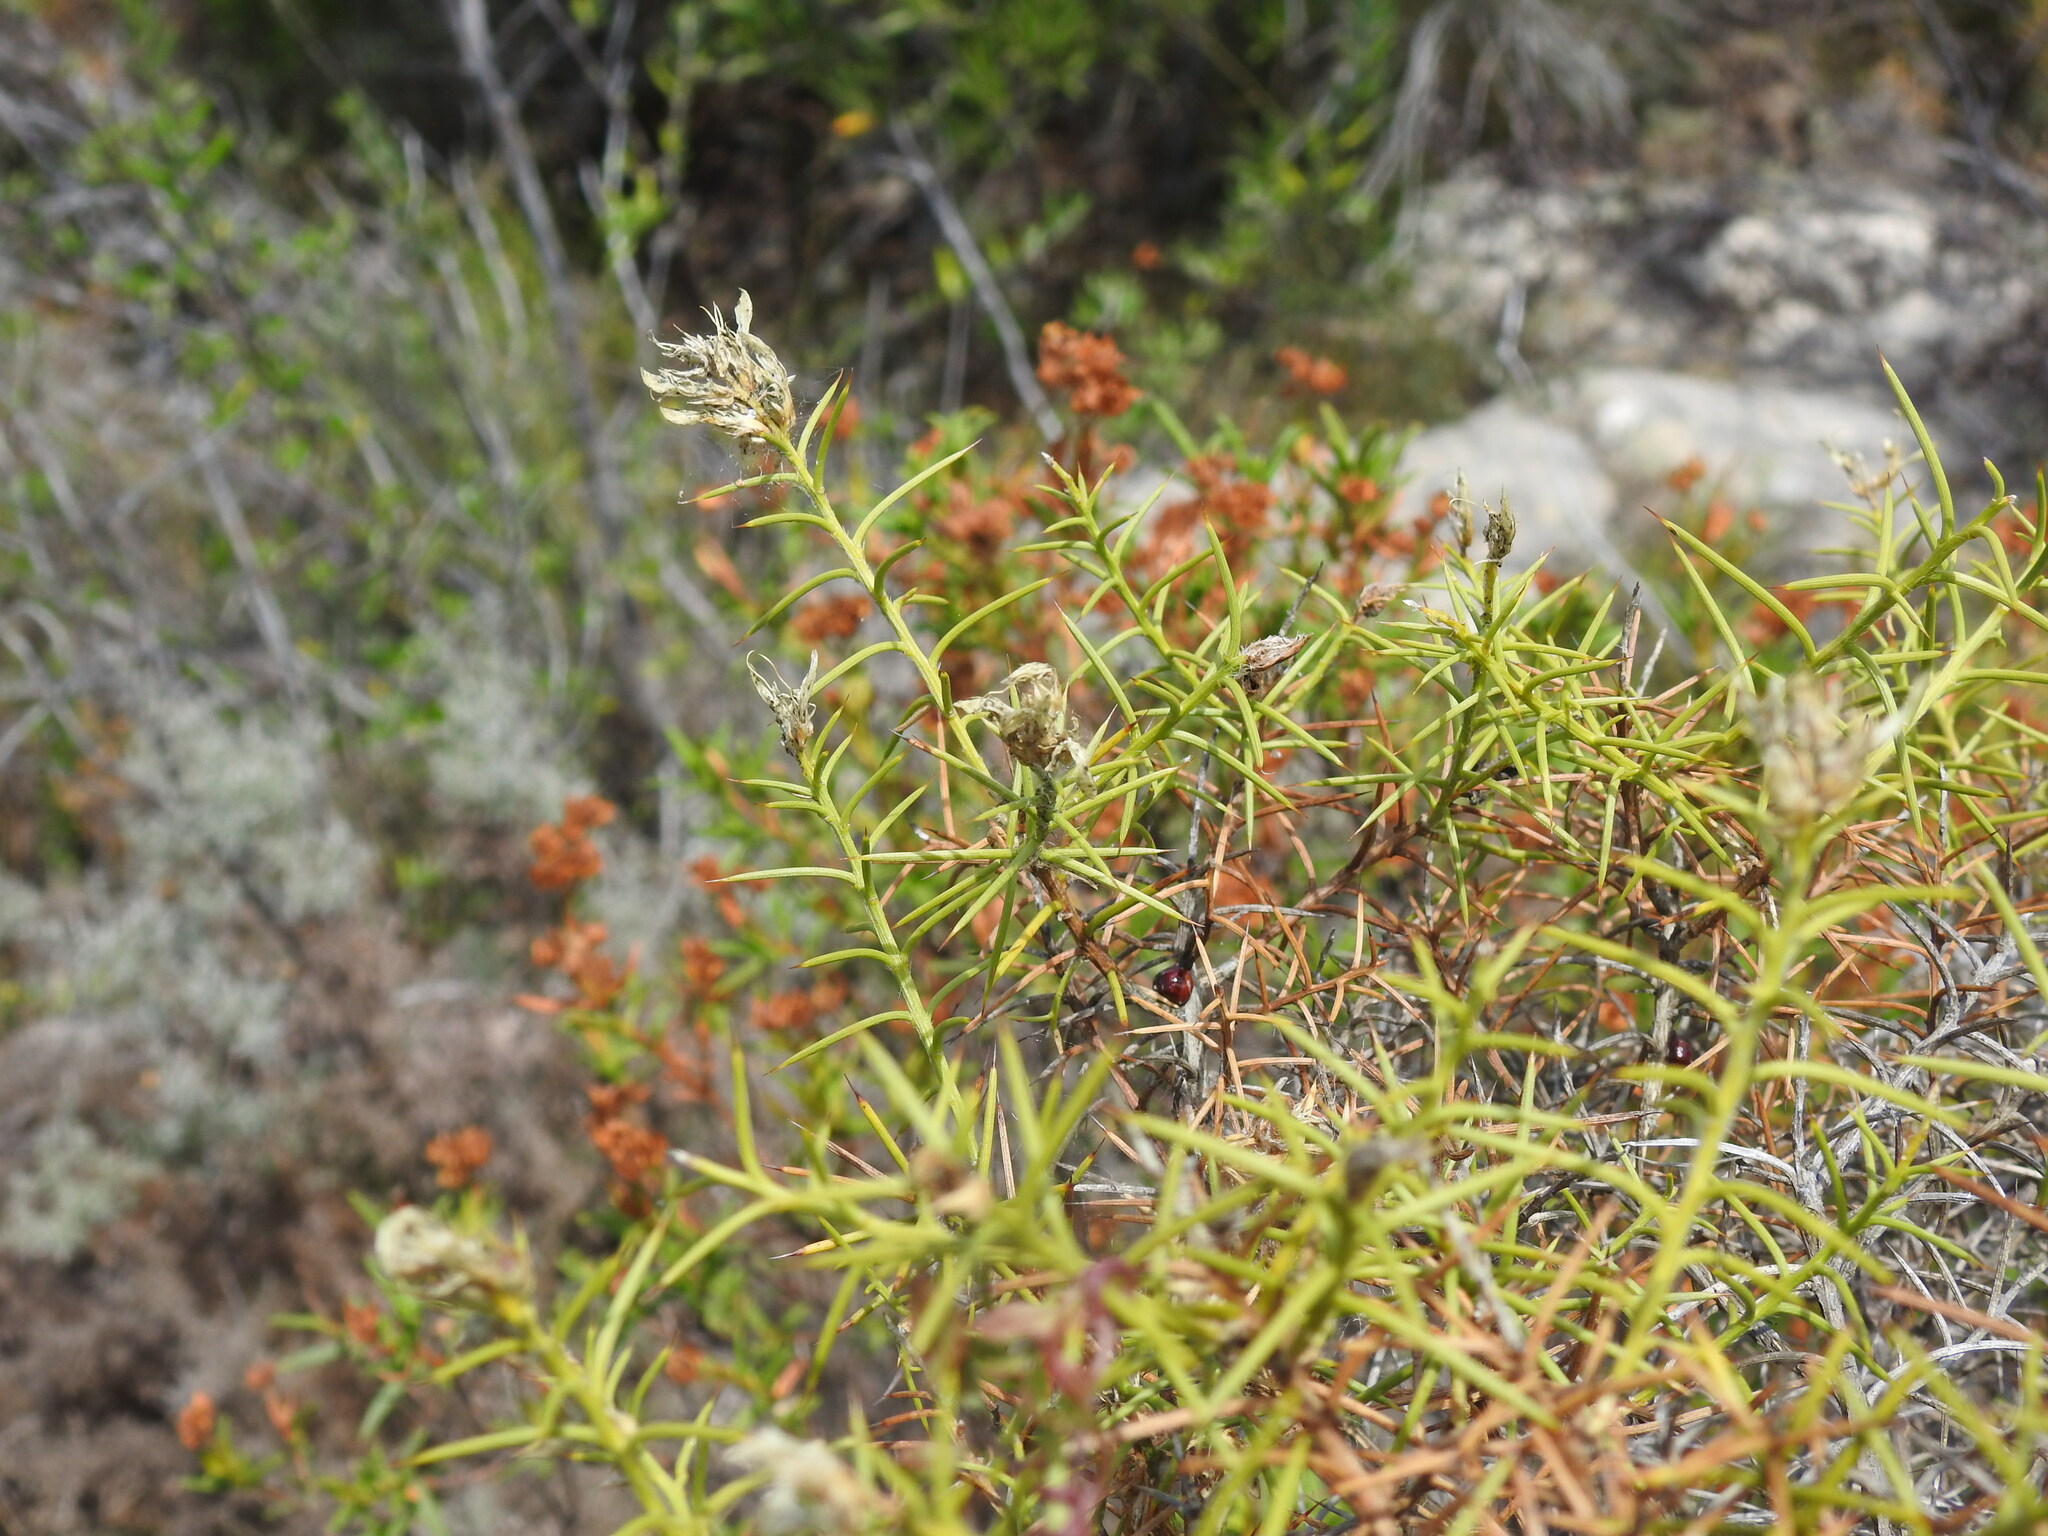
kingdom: Plantae
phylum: Tracheophyta
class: Magnoliopsida
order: Fabales
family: Fabaceae
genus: Genista
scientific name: Genista hirsuta
